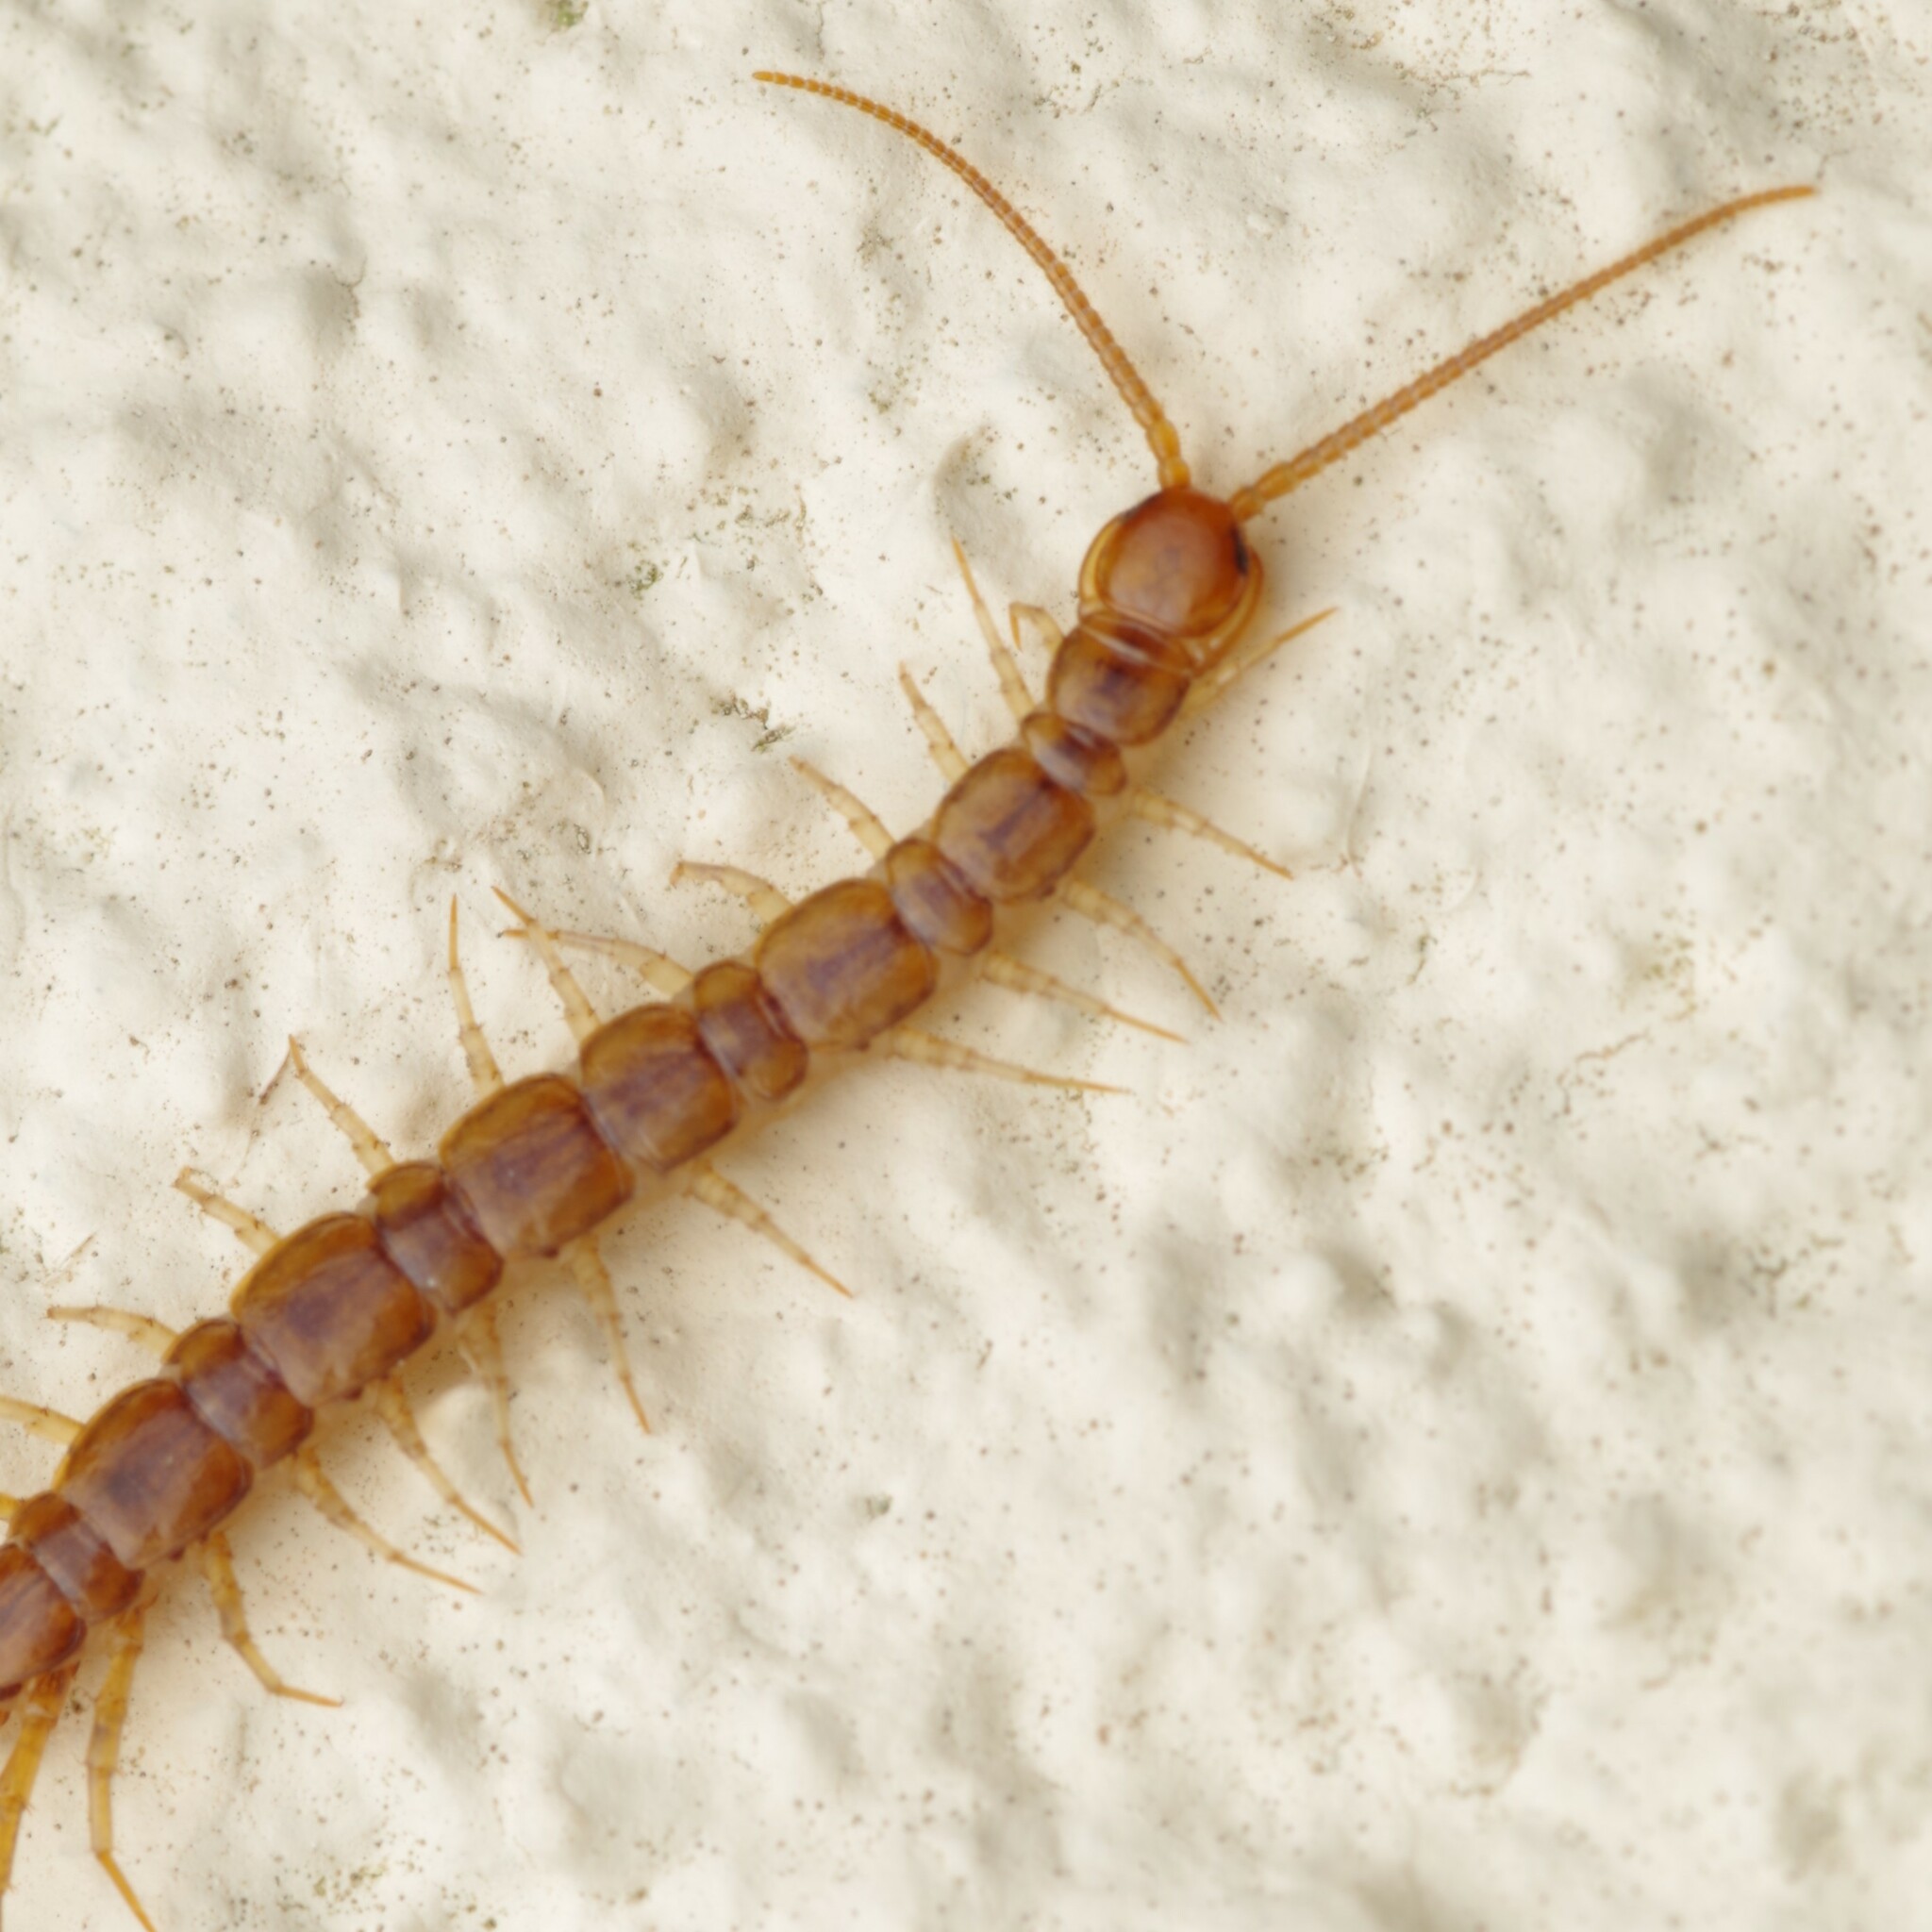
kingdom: Animalia
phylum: Arthropoda
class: Chilopoda
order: Lithobiomorpha
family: Lithobiidae
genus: Lithobius
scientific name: Lithobius melanops
